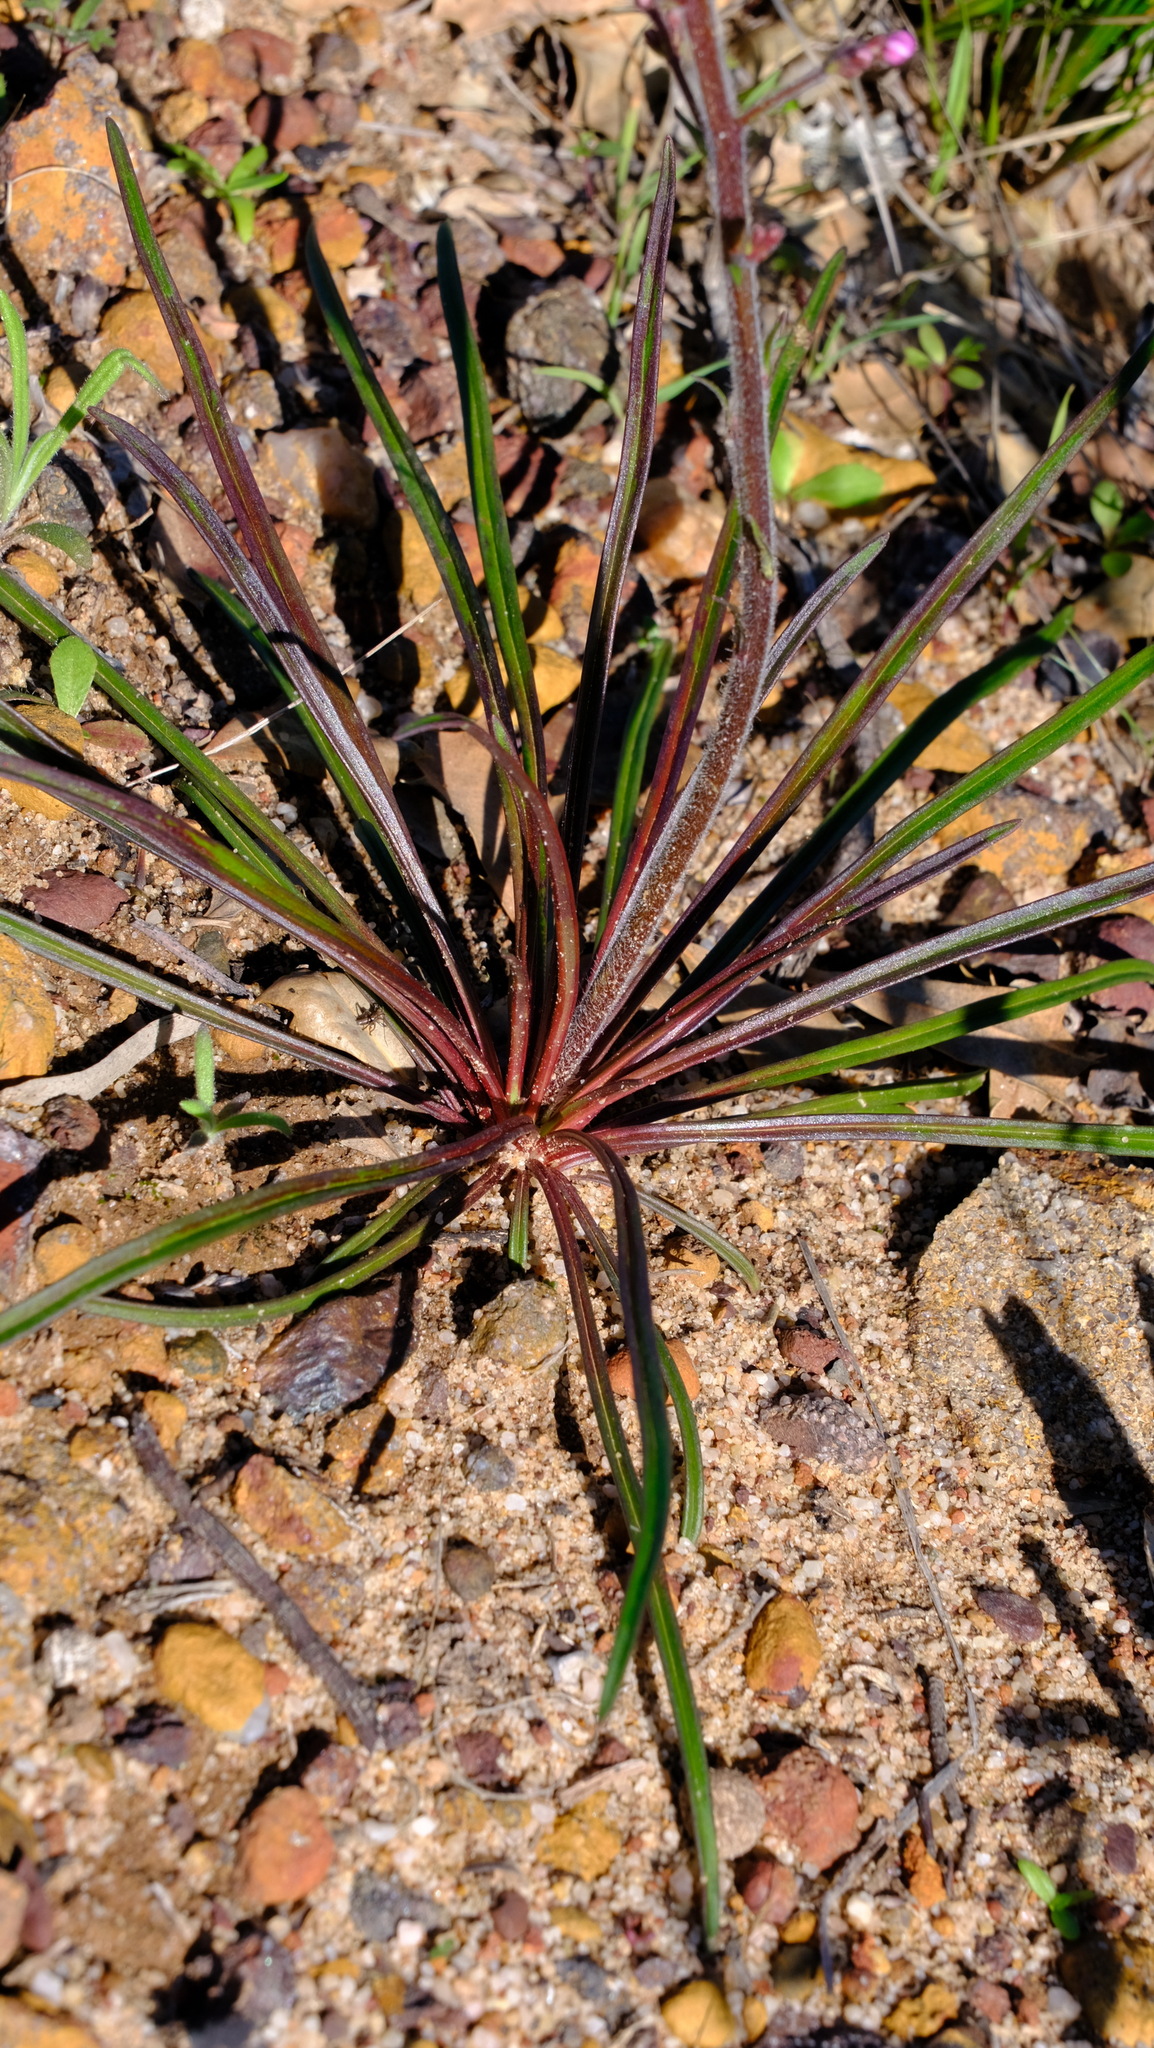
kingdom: Plantae
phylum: Tracheophyta
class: Magnoliopsida
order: Asterales
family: Stylidiaceae
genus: Stylidium
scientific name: Stylidium elongatum
